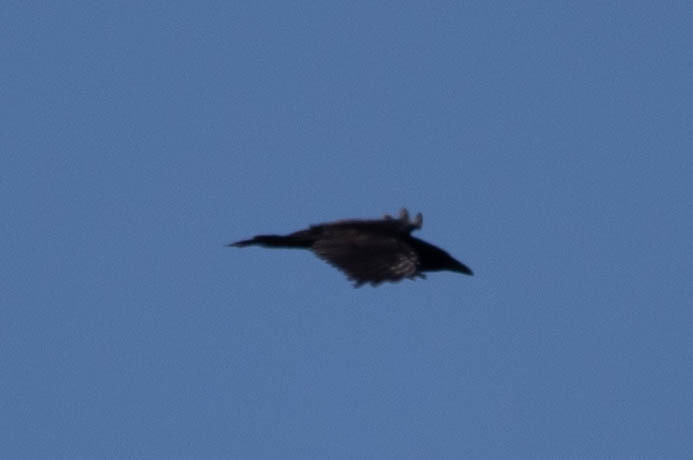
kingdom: Animalia
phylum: Chordata
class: Aves
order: Passeriformes
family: Corvidae
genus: Corvus
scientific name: Corvus corax
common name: Common raven
